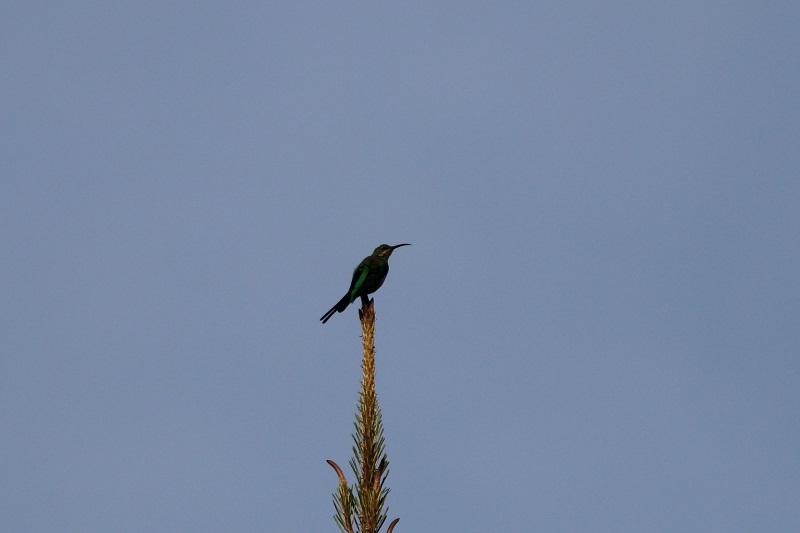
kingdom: Animalia
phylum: Chordata
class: Aves
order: Passeriformes
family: Nectariniidae
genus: Nectarinia
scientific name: Nectarinia famosa
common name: Malachite sunbird
